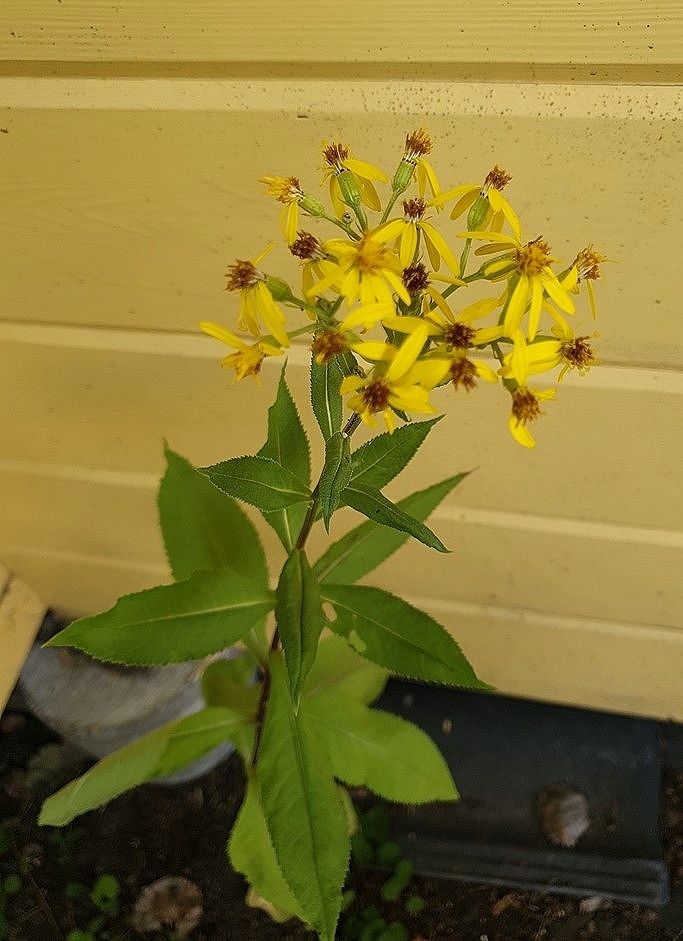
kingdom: Plantae
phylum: Tracheophyta
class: Magnoliopsida
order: Asterales
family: Asteraceae
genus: Senecio
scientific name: Senecio ovatus
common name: Wood ragwort
